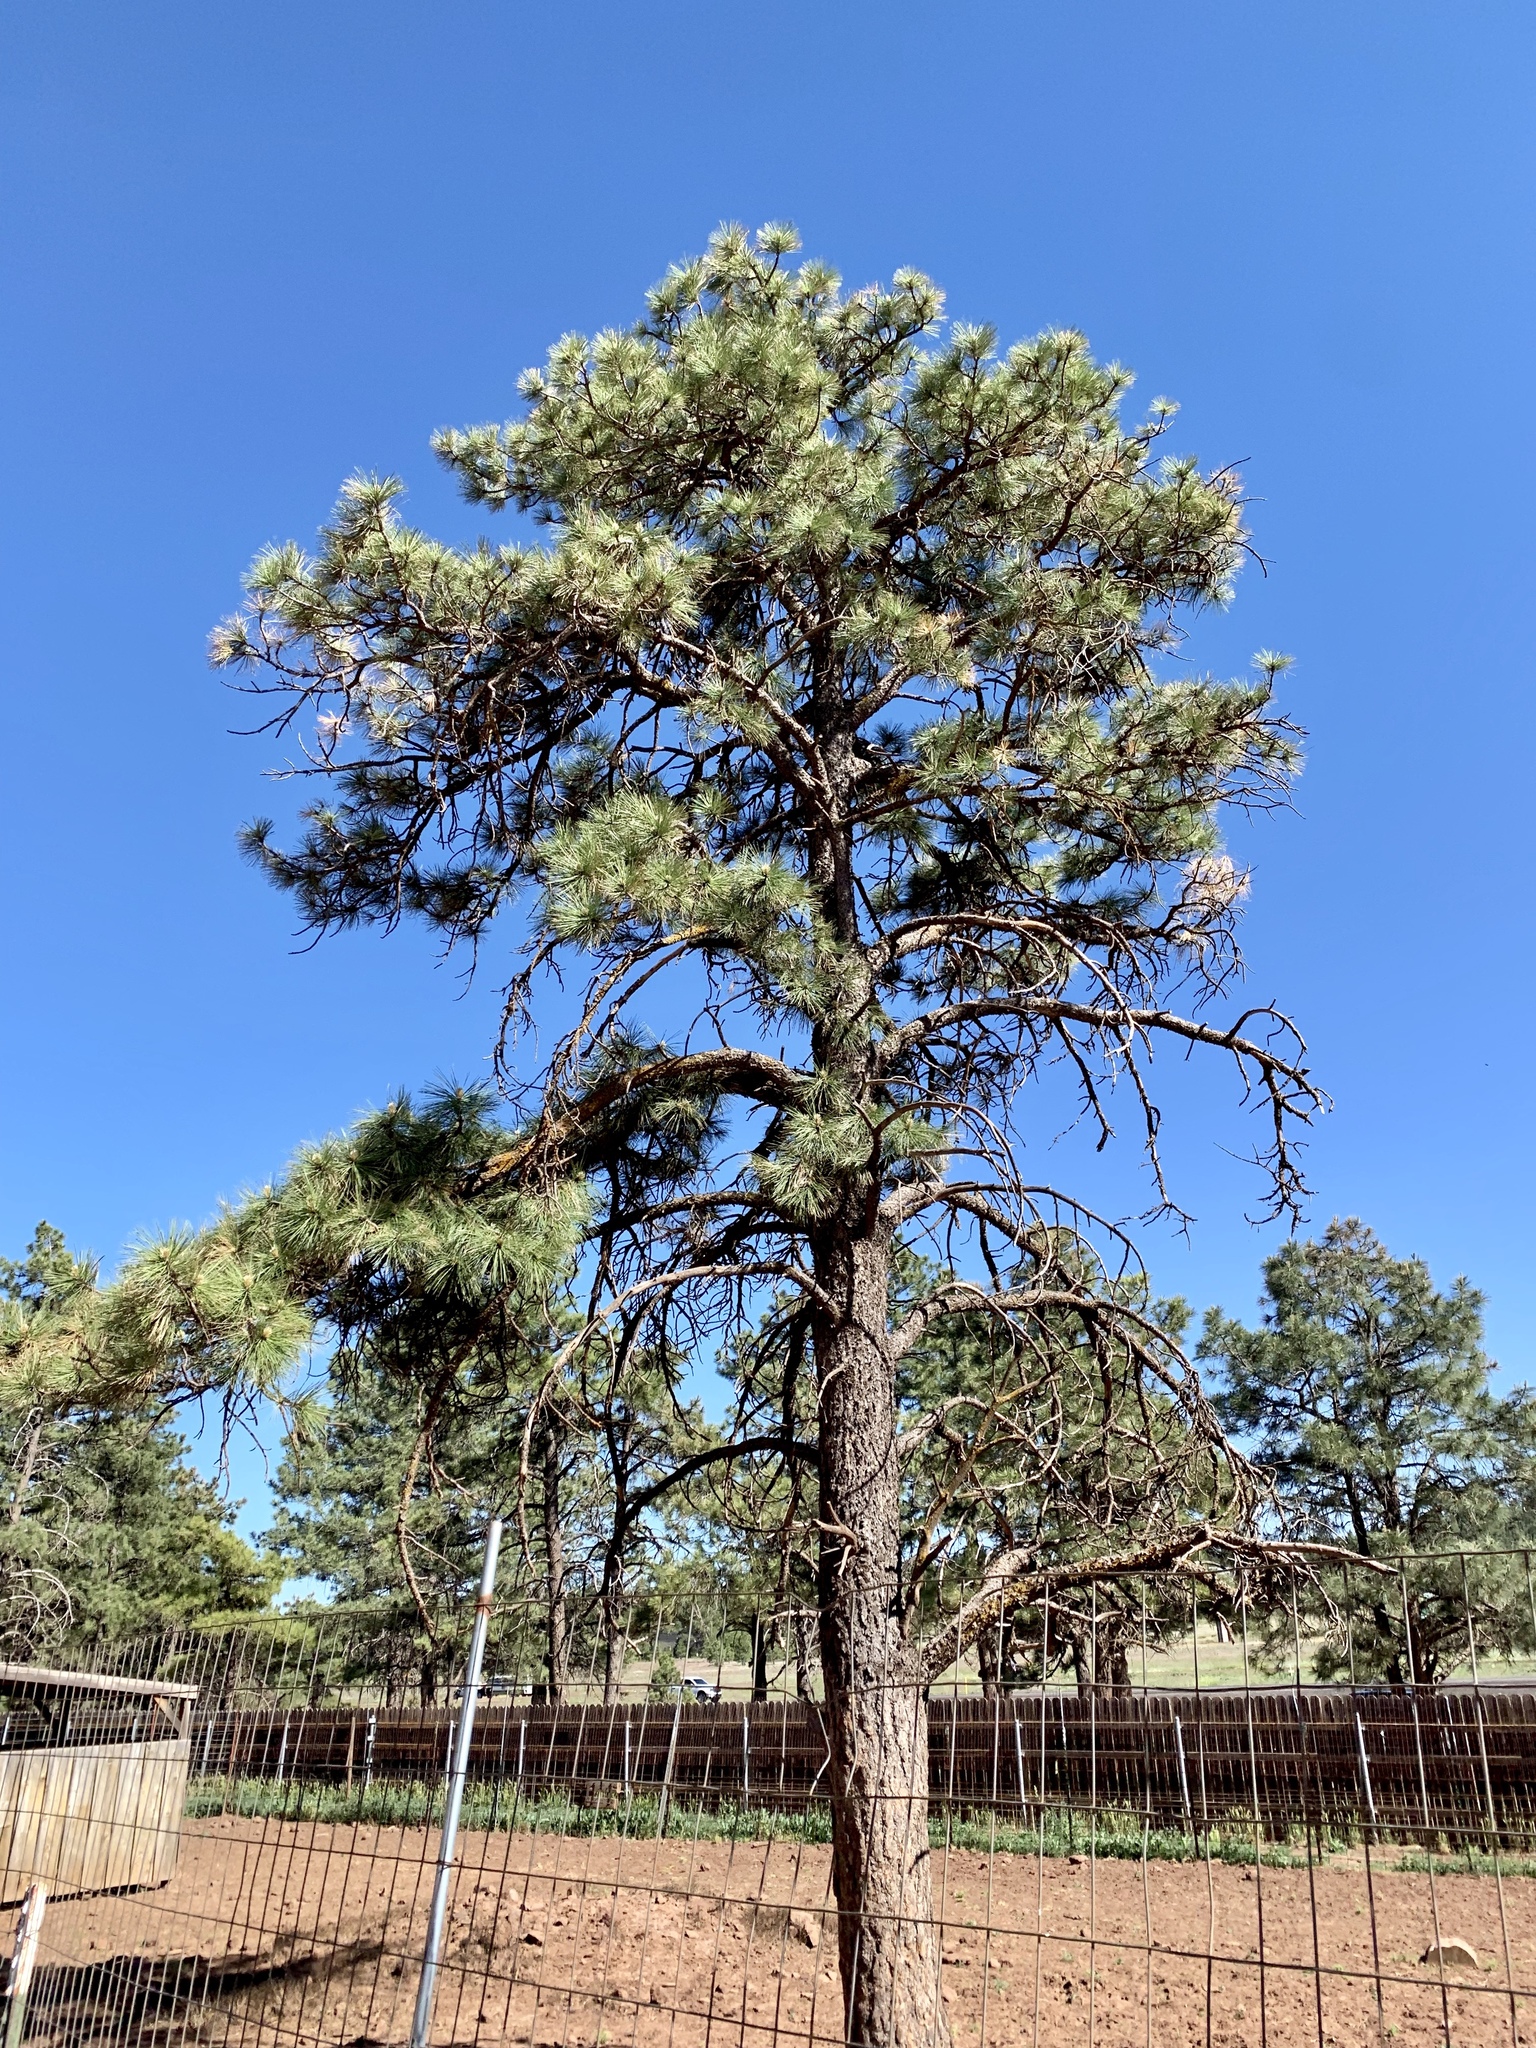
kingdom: Plantae
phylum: Tracheophyta
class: Pinopsida
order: Pinales
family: Pinaceae
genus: Pinus
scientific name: Pinus ponderosa
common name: Western yellow-pine
